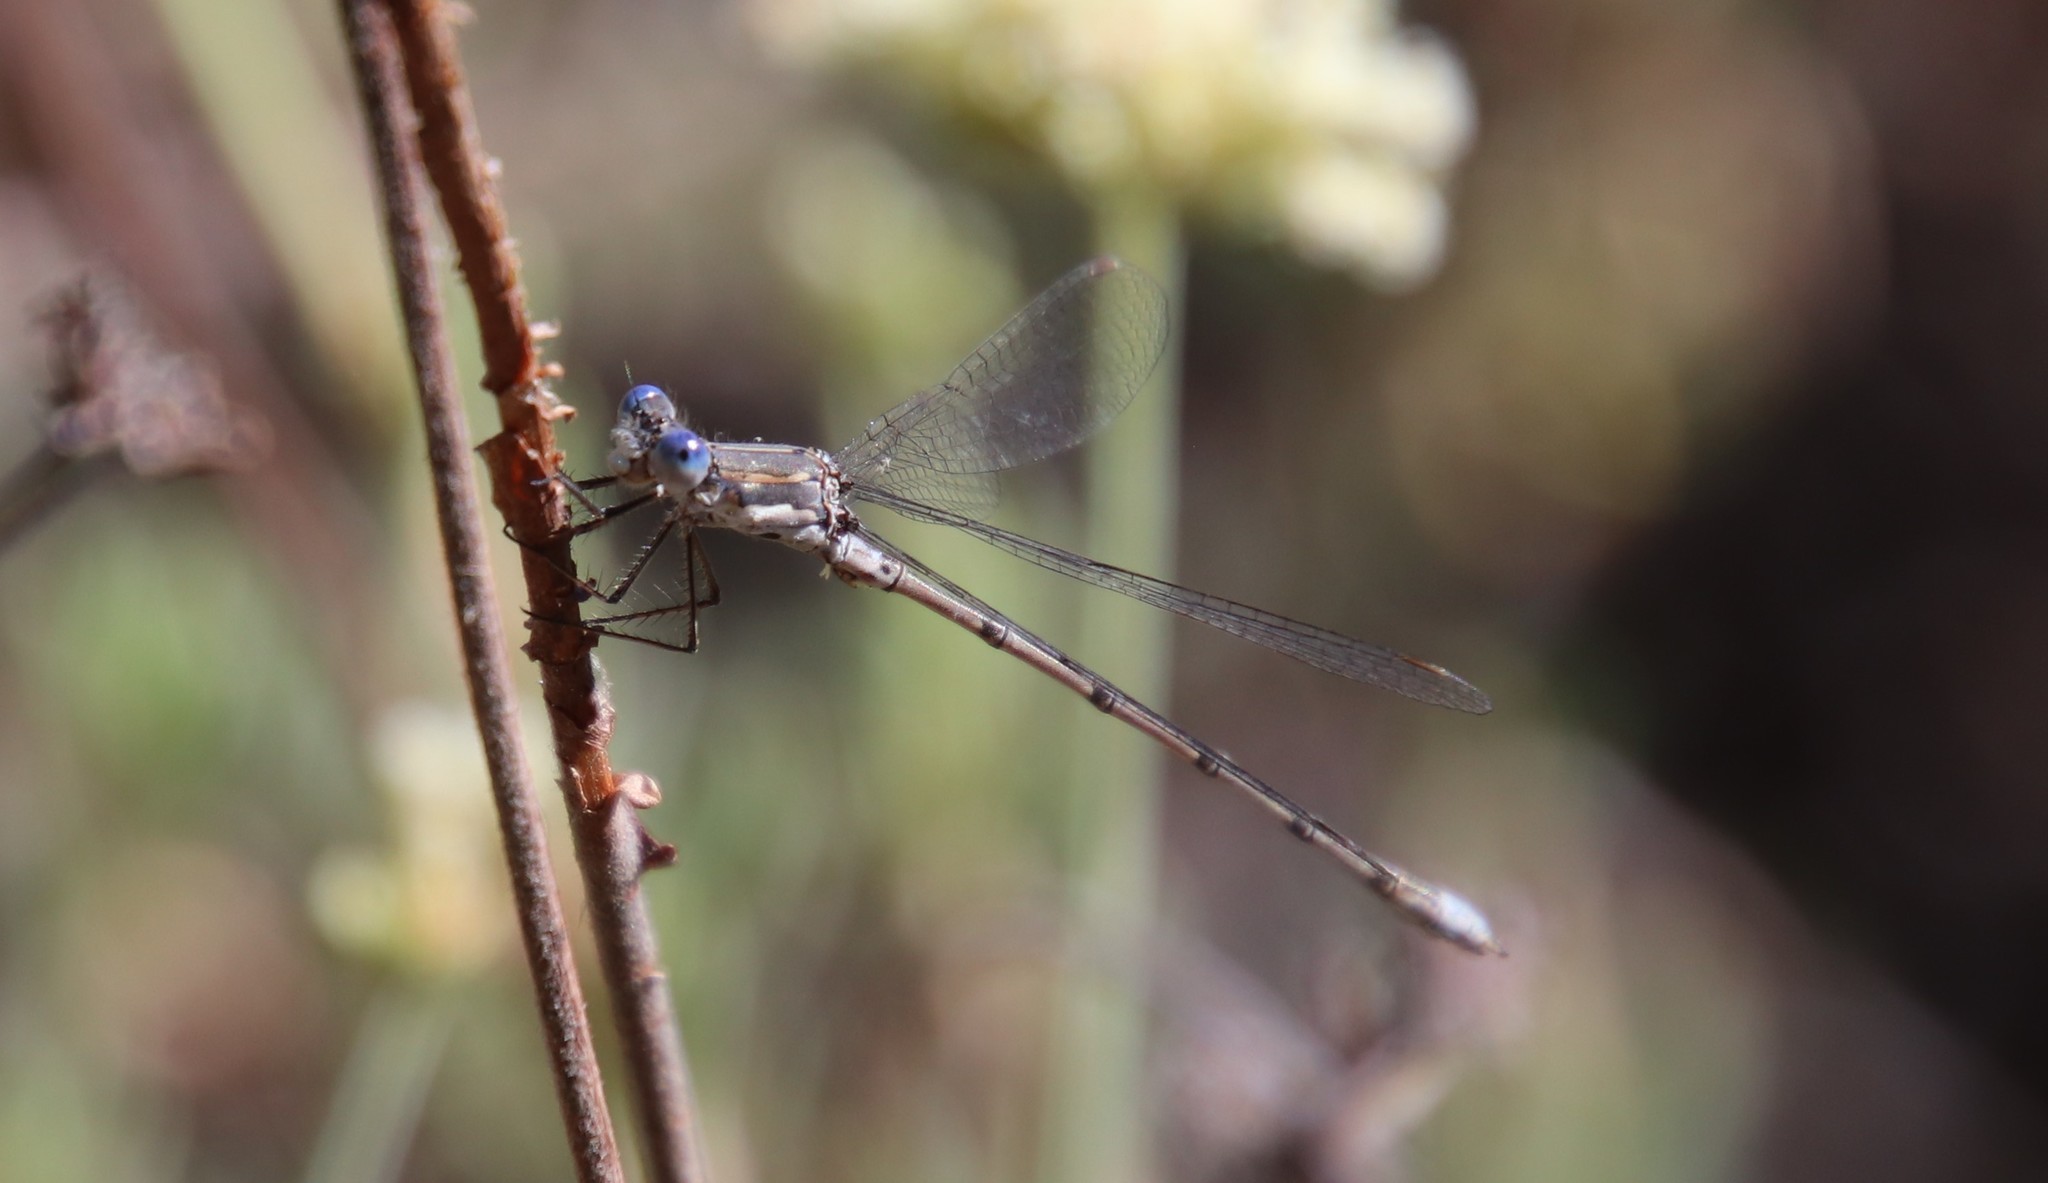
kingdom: Animalia
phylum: Arthropoda
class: Insecta
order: Odonata
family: Lestidae
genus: Lestes
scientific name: Lestes congener
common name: Spotted spreadwing
